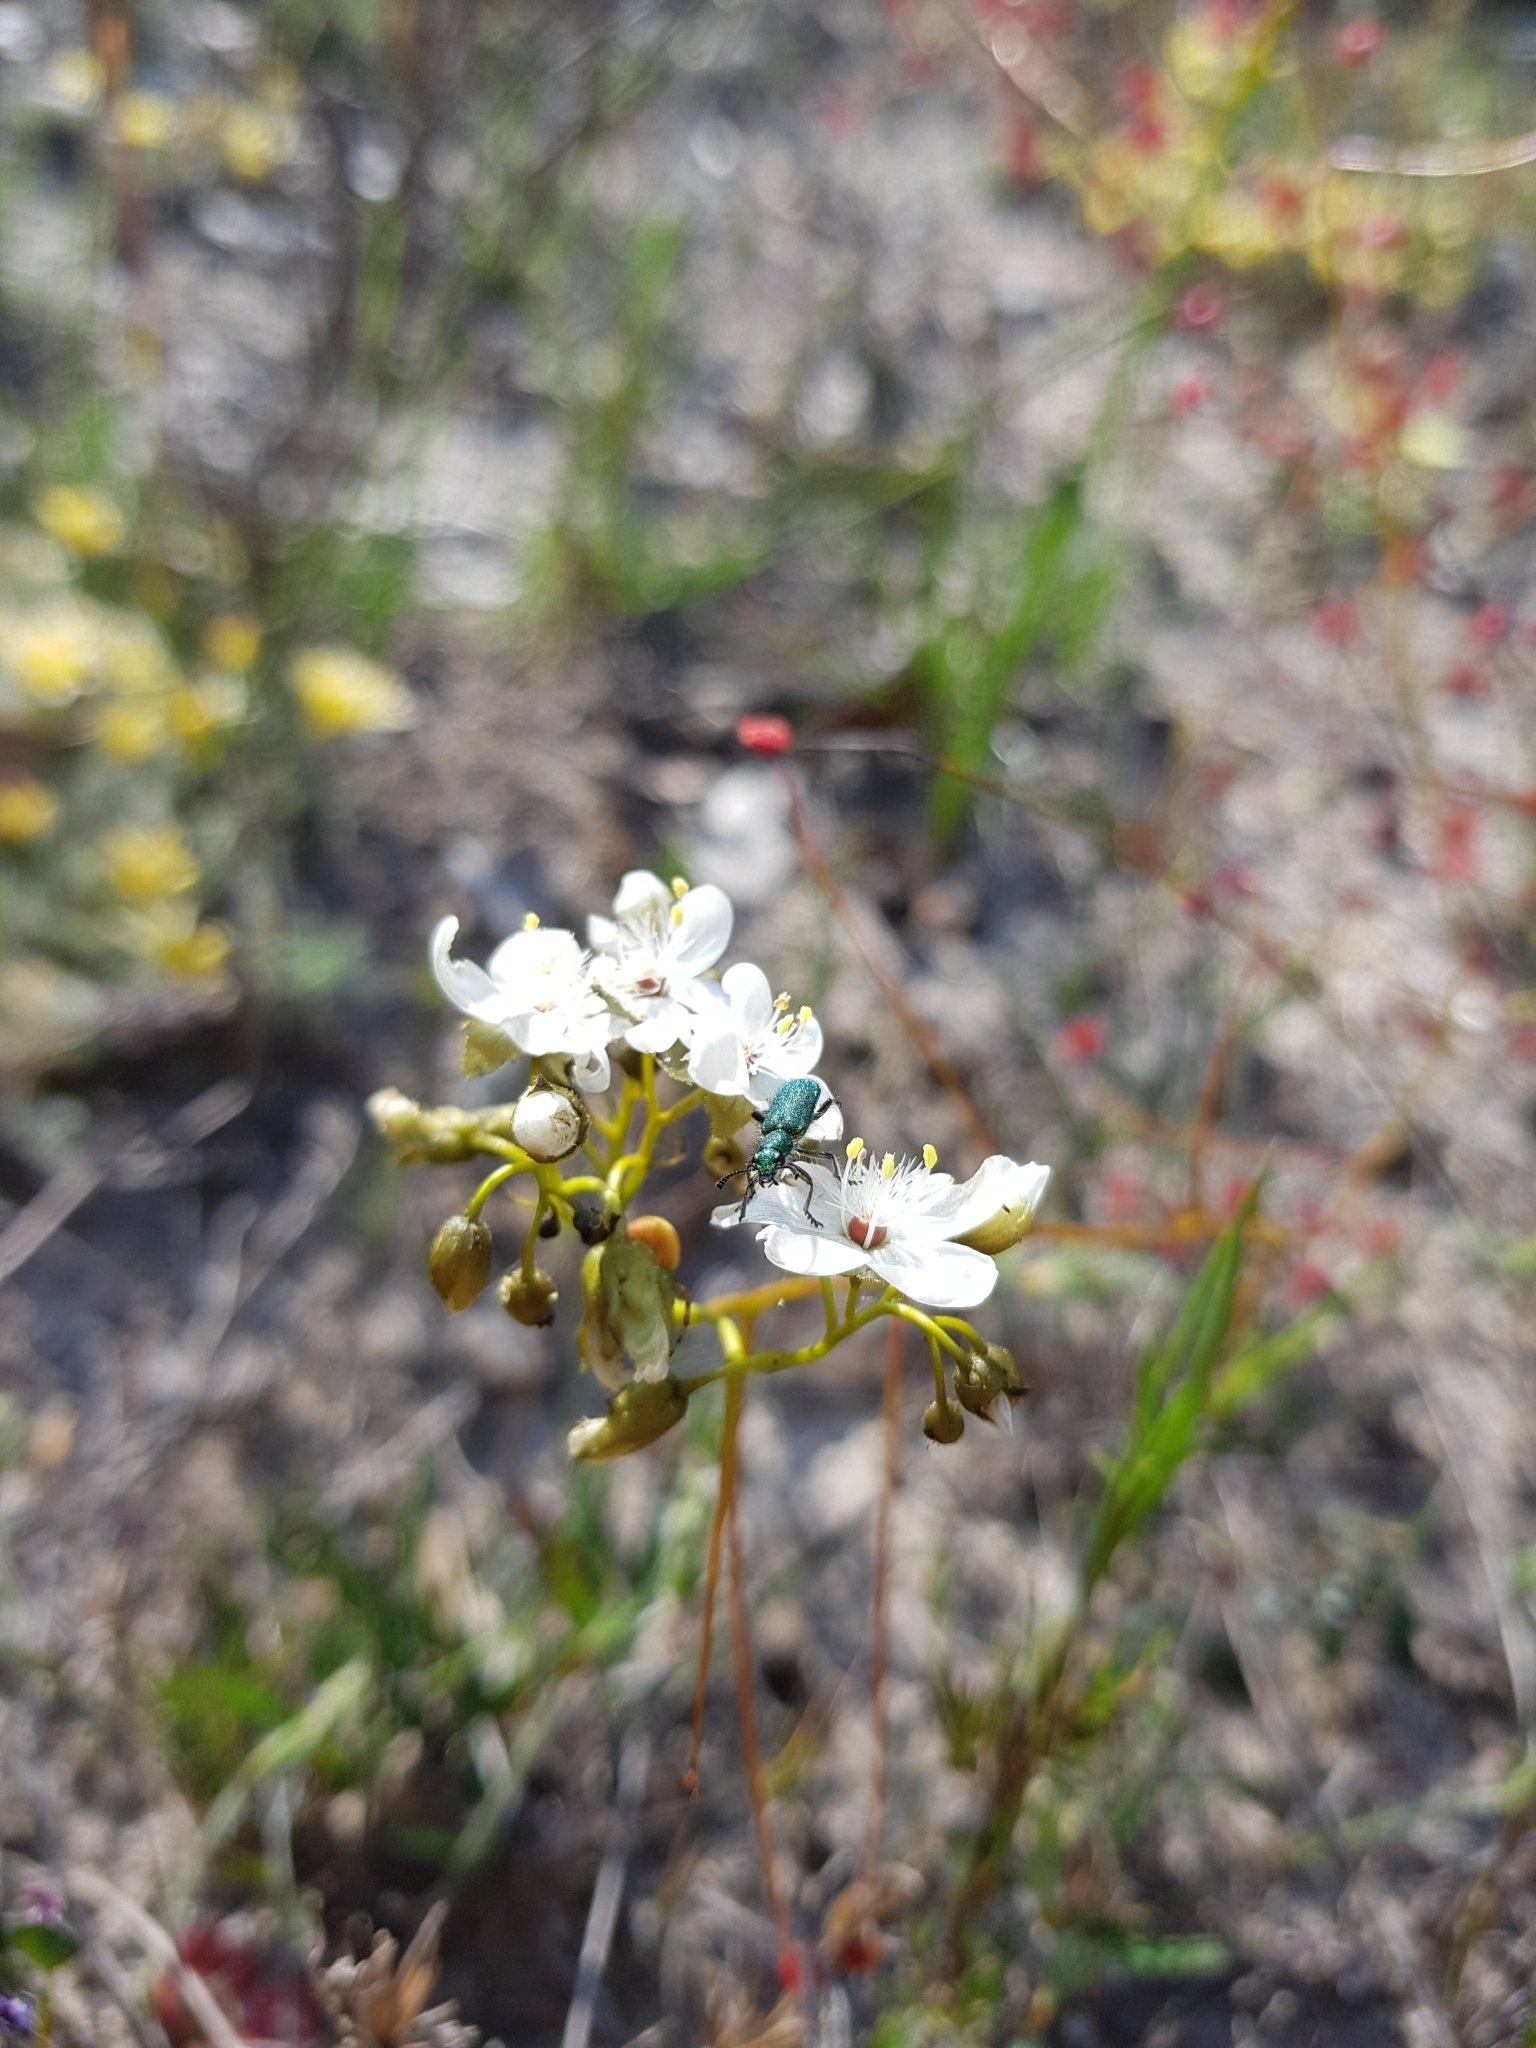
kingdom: Plantae
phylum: Tracheophyta
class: Magnoliopsida
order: Caryophyllales
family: Droseraceae
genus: Drosera
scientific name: Drosera pallida
